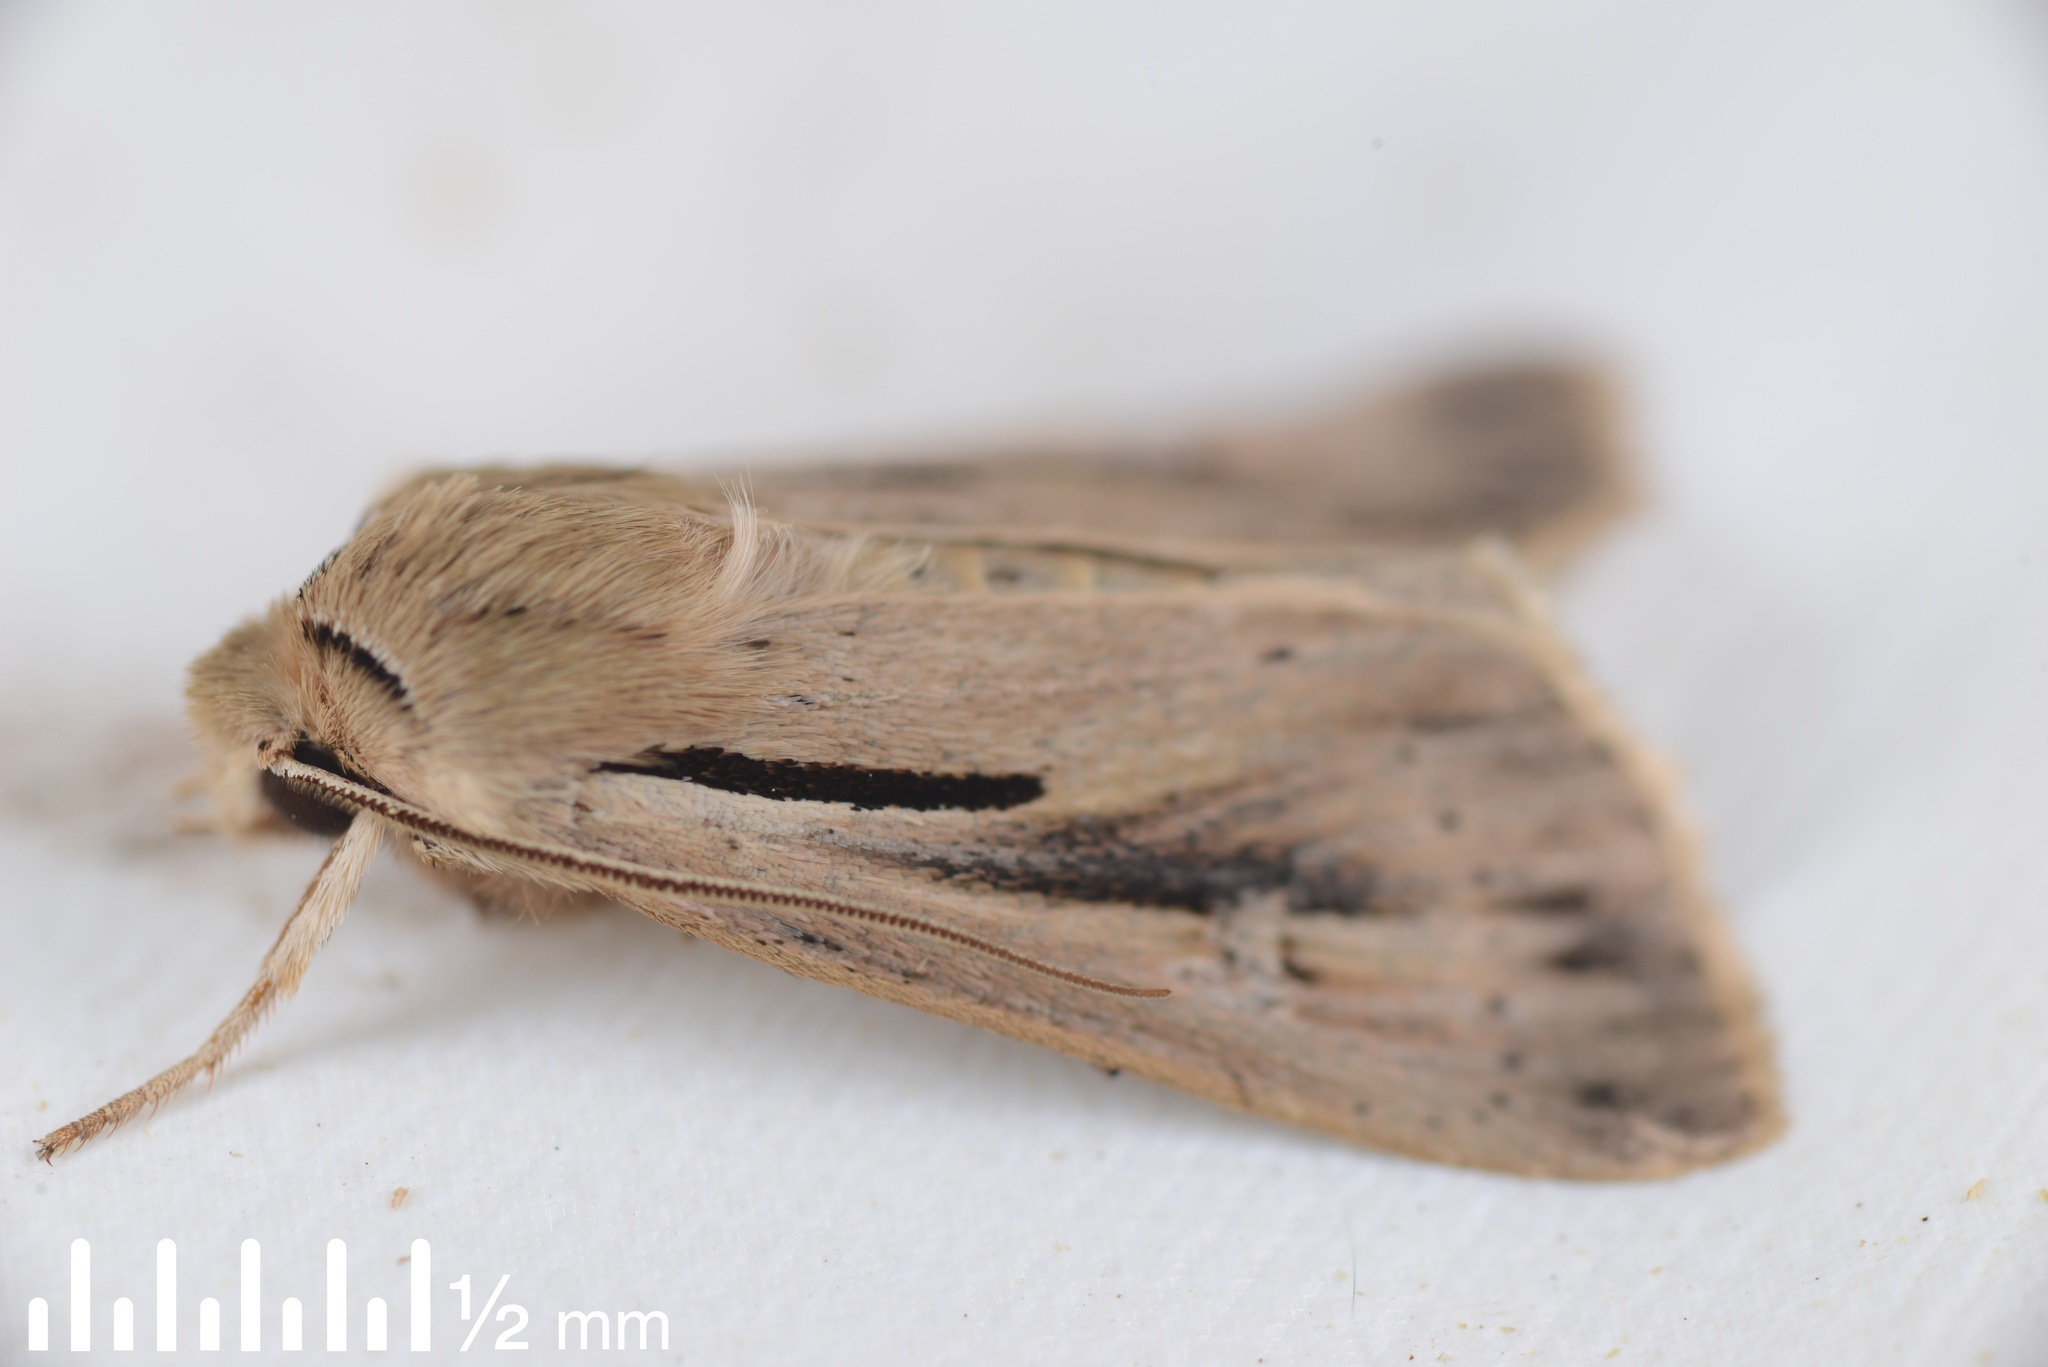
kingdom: Animalia
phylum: Arthropoda
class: Insecta
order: Lepidoptera
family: Noctuidae
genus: Ichneutica
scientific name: Ichneutica propria
